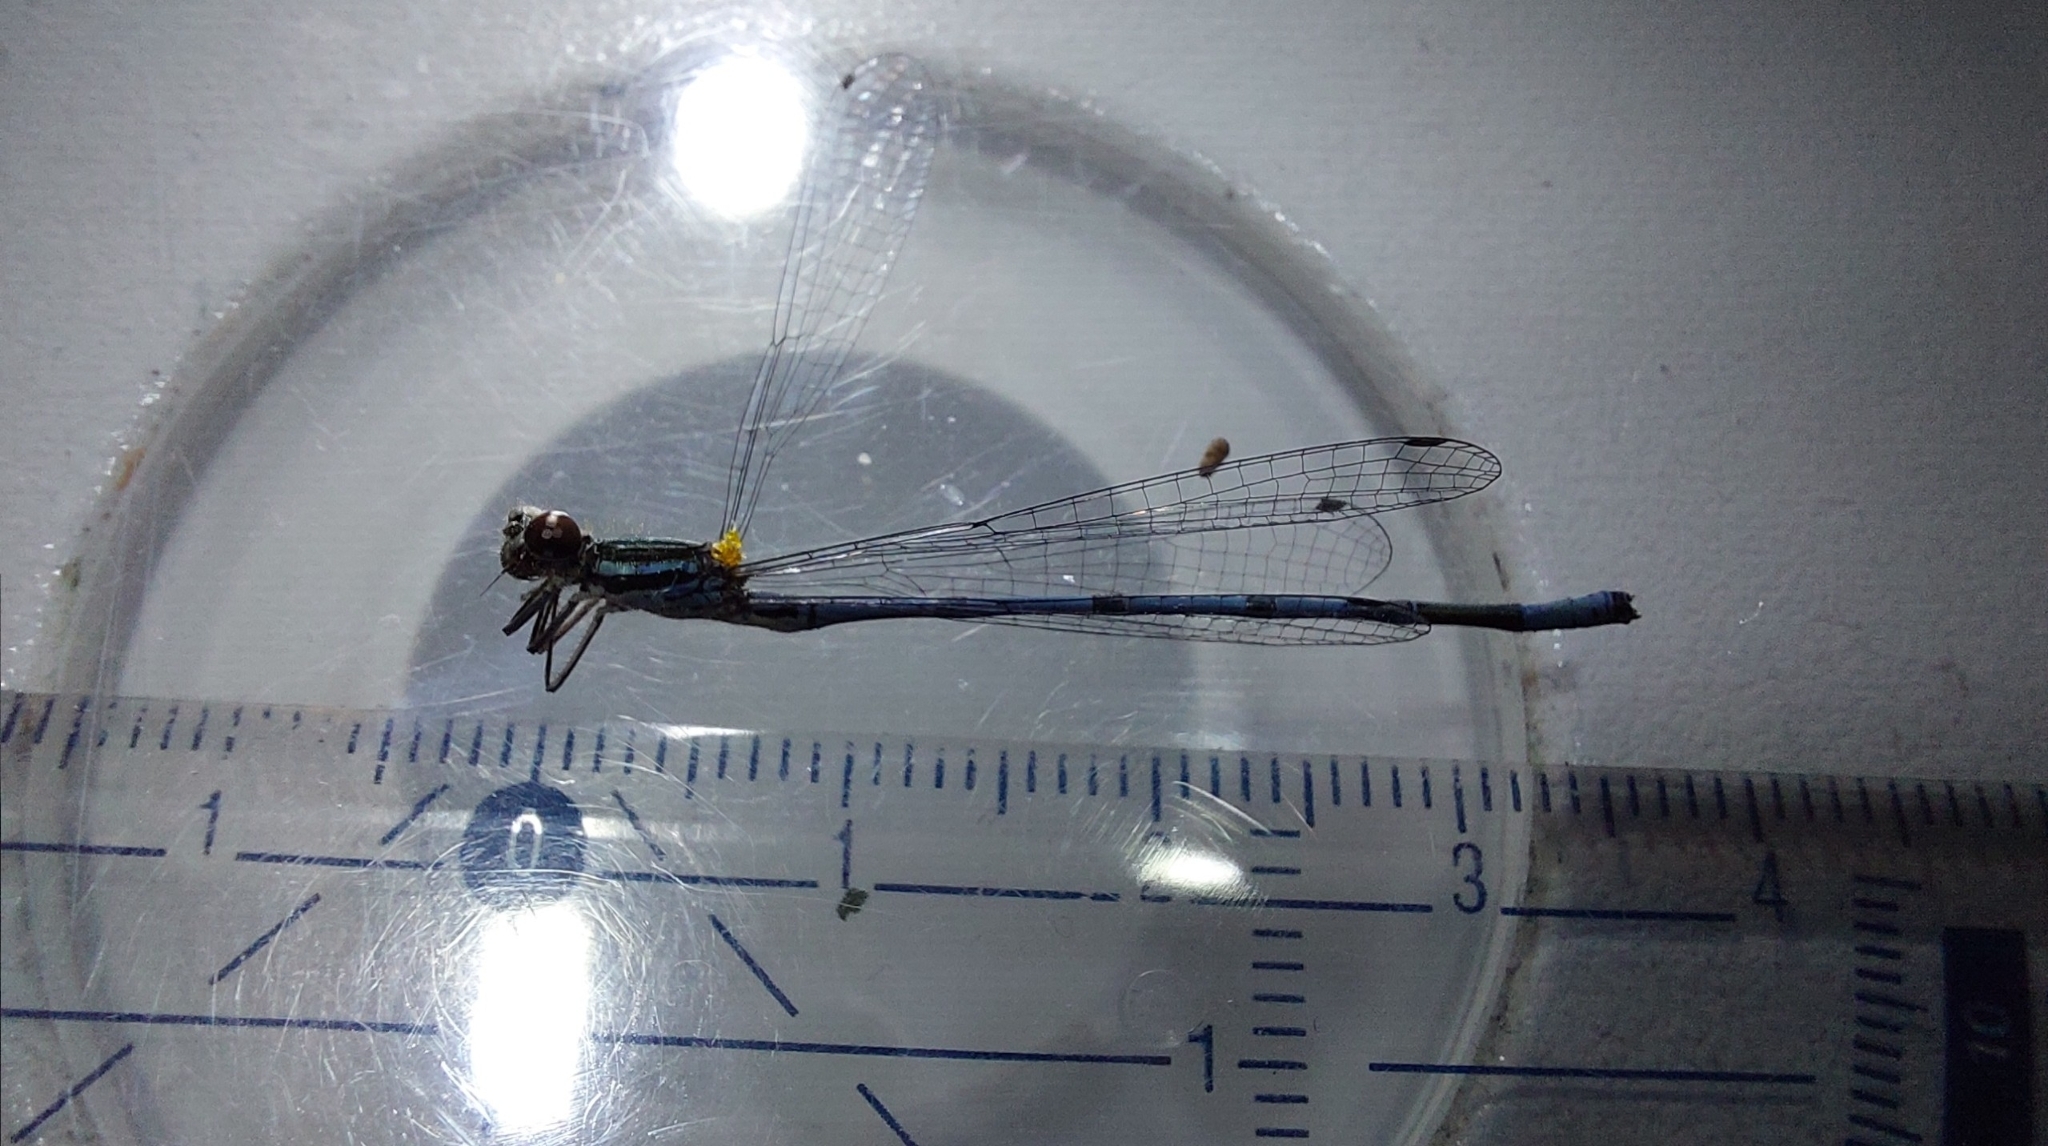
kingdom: Animalia
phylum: Arthropoda
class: Insecta
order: Odonata
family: Coenagrionidae
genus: Coenagrion
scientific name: Coenagrion puella
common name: Azure damselfly
